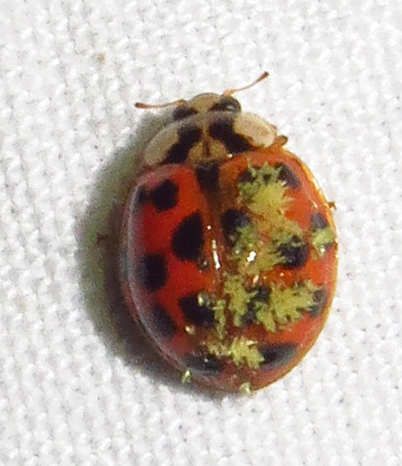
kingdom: Fungi
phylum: Ascomycota
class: Laboulbeniomycetes
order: Laboulbeniales
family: Laboulbeniaceae
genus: Hesperomyces
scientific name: Hesperomyces harmoniae
